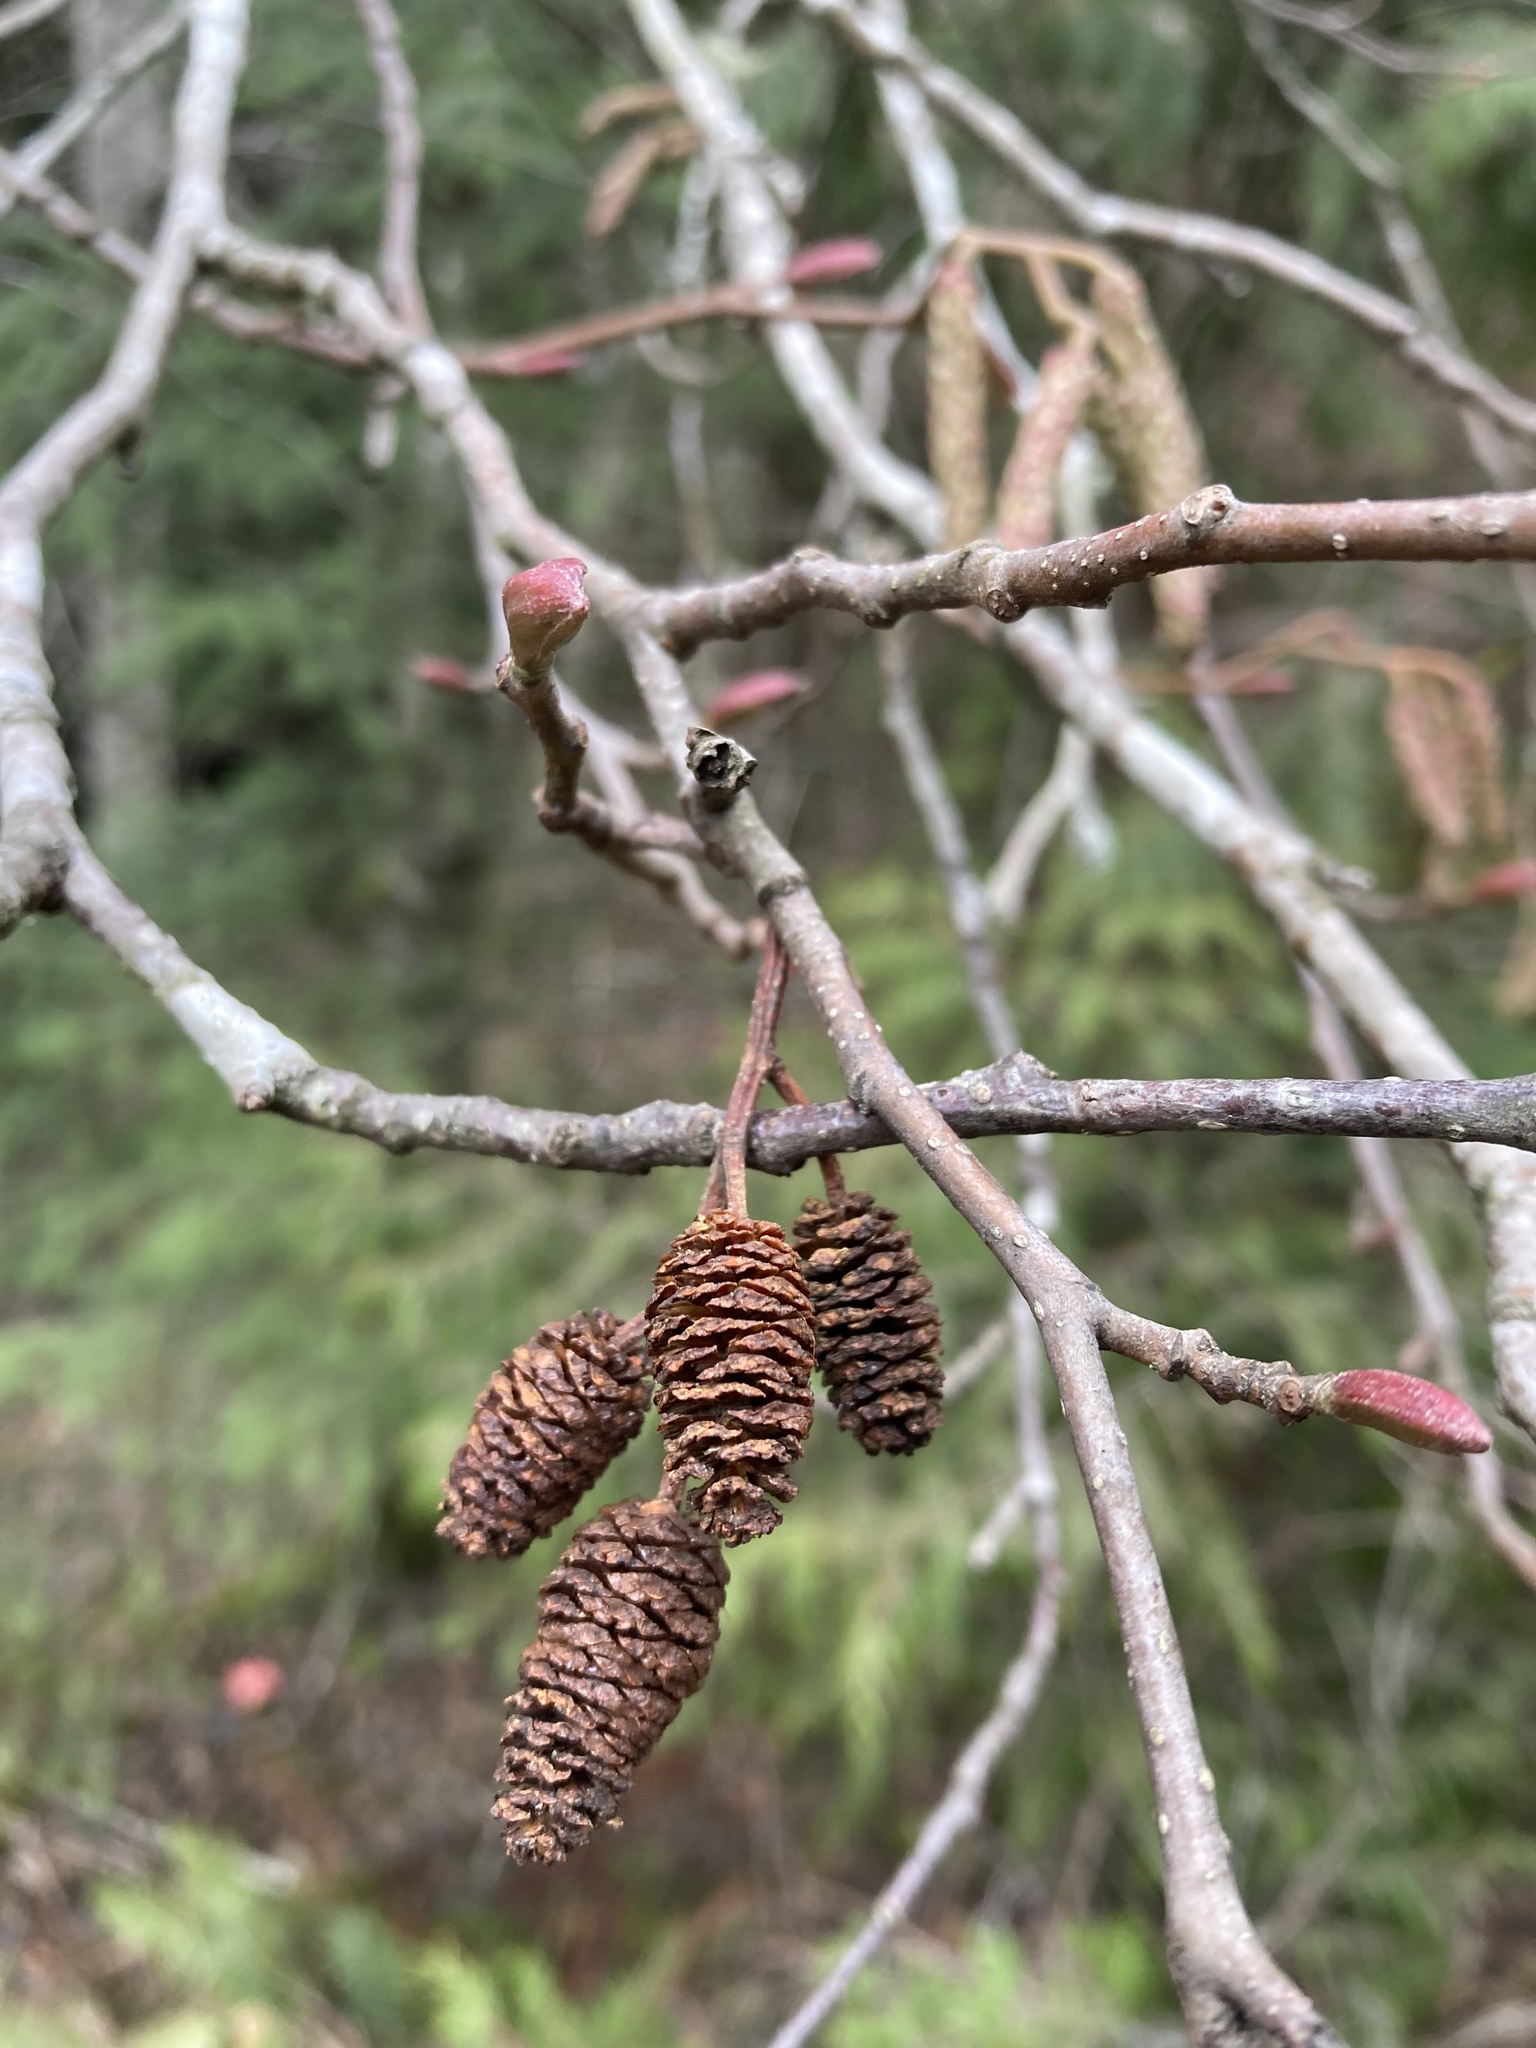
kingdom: Plantae
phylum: Tracheophyta
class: Magnoliopsida
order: Fagales
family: Betulaceae
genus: Alnus
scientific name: Alnus rubra
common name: Red alder
